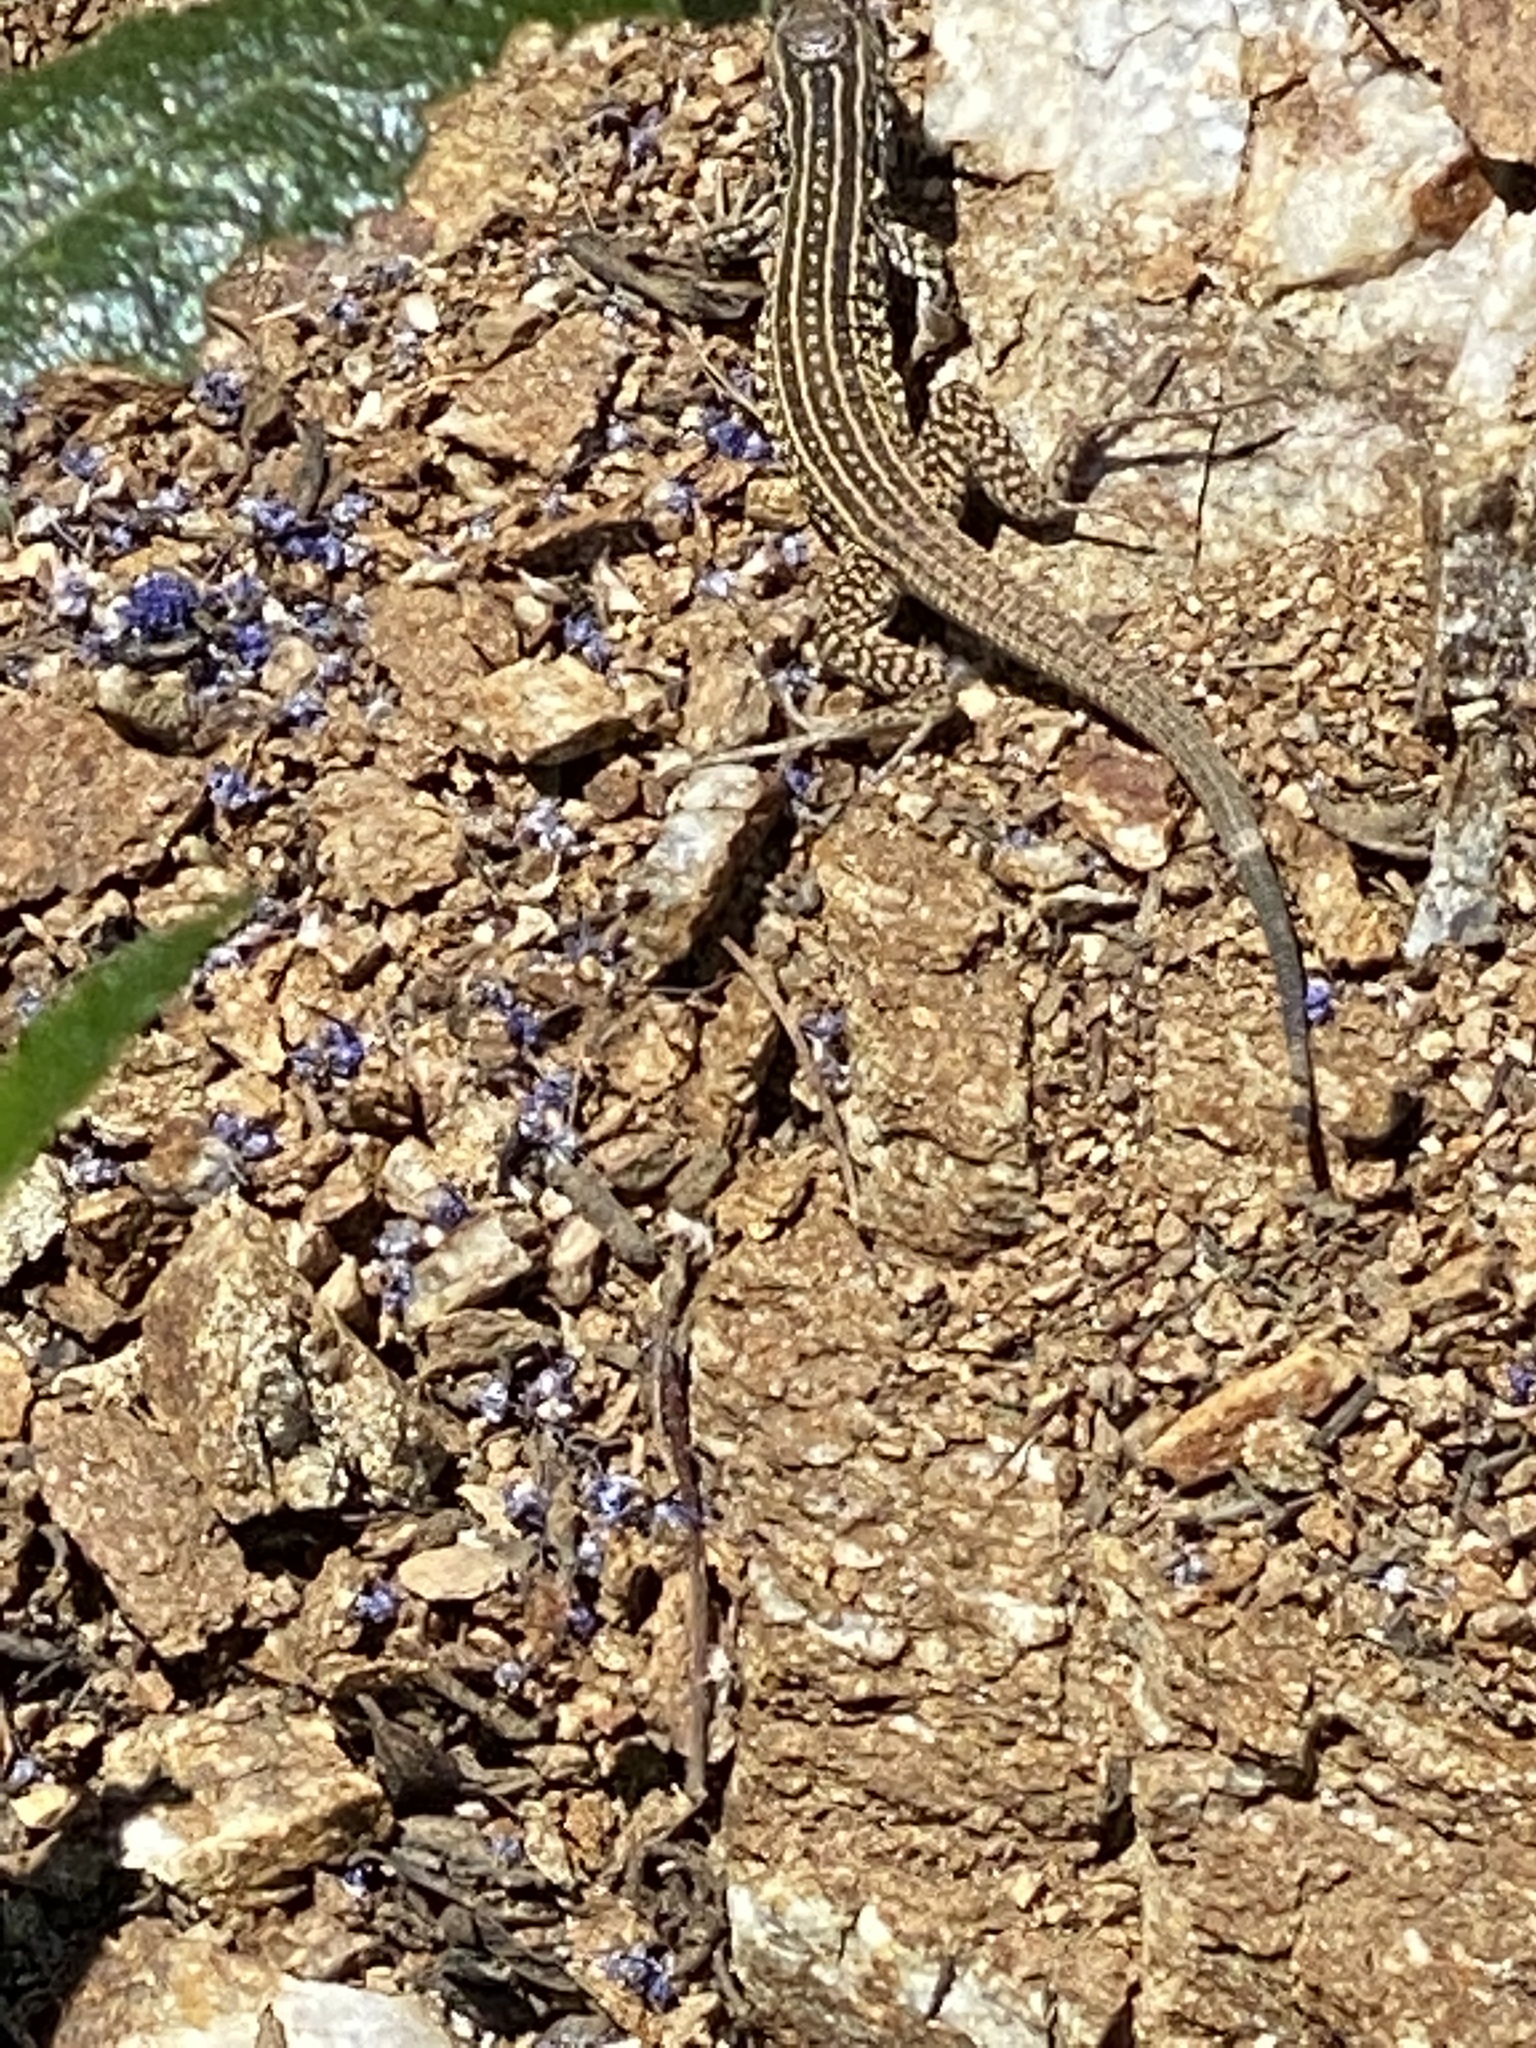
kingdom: Animalia
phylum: Chordata
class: Squamata
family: Teiidae
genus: Aspidoscelis
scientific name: Aspidoscelis tigris
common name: Tiger whiptail
